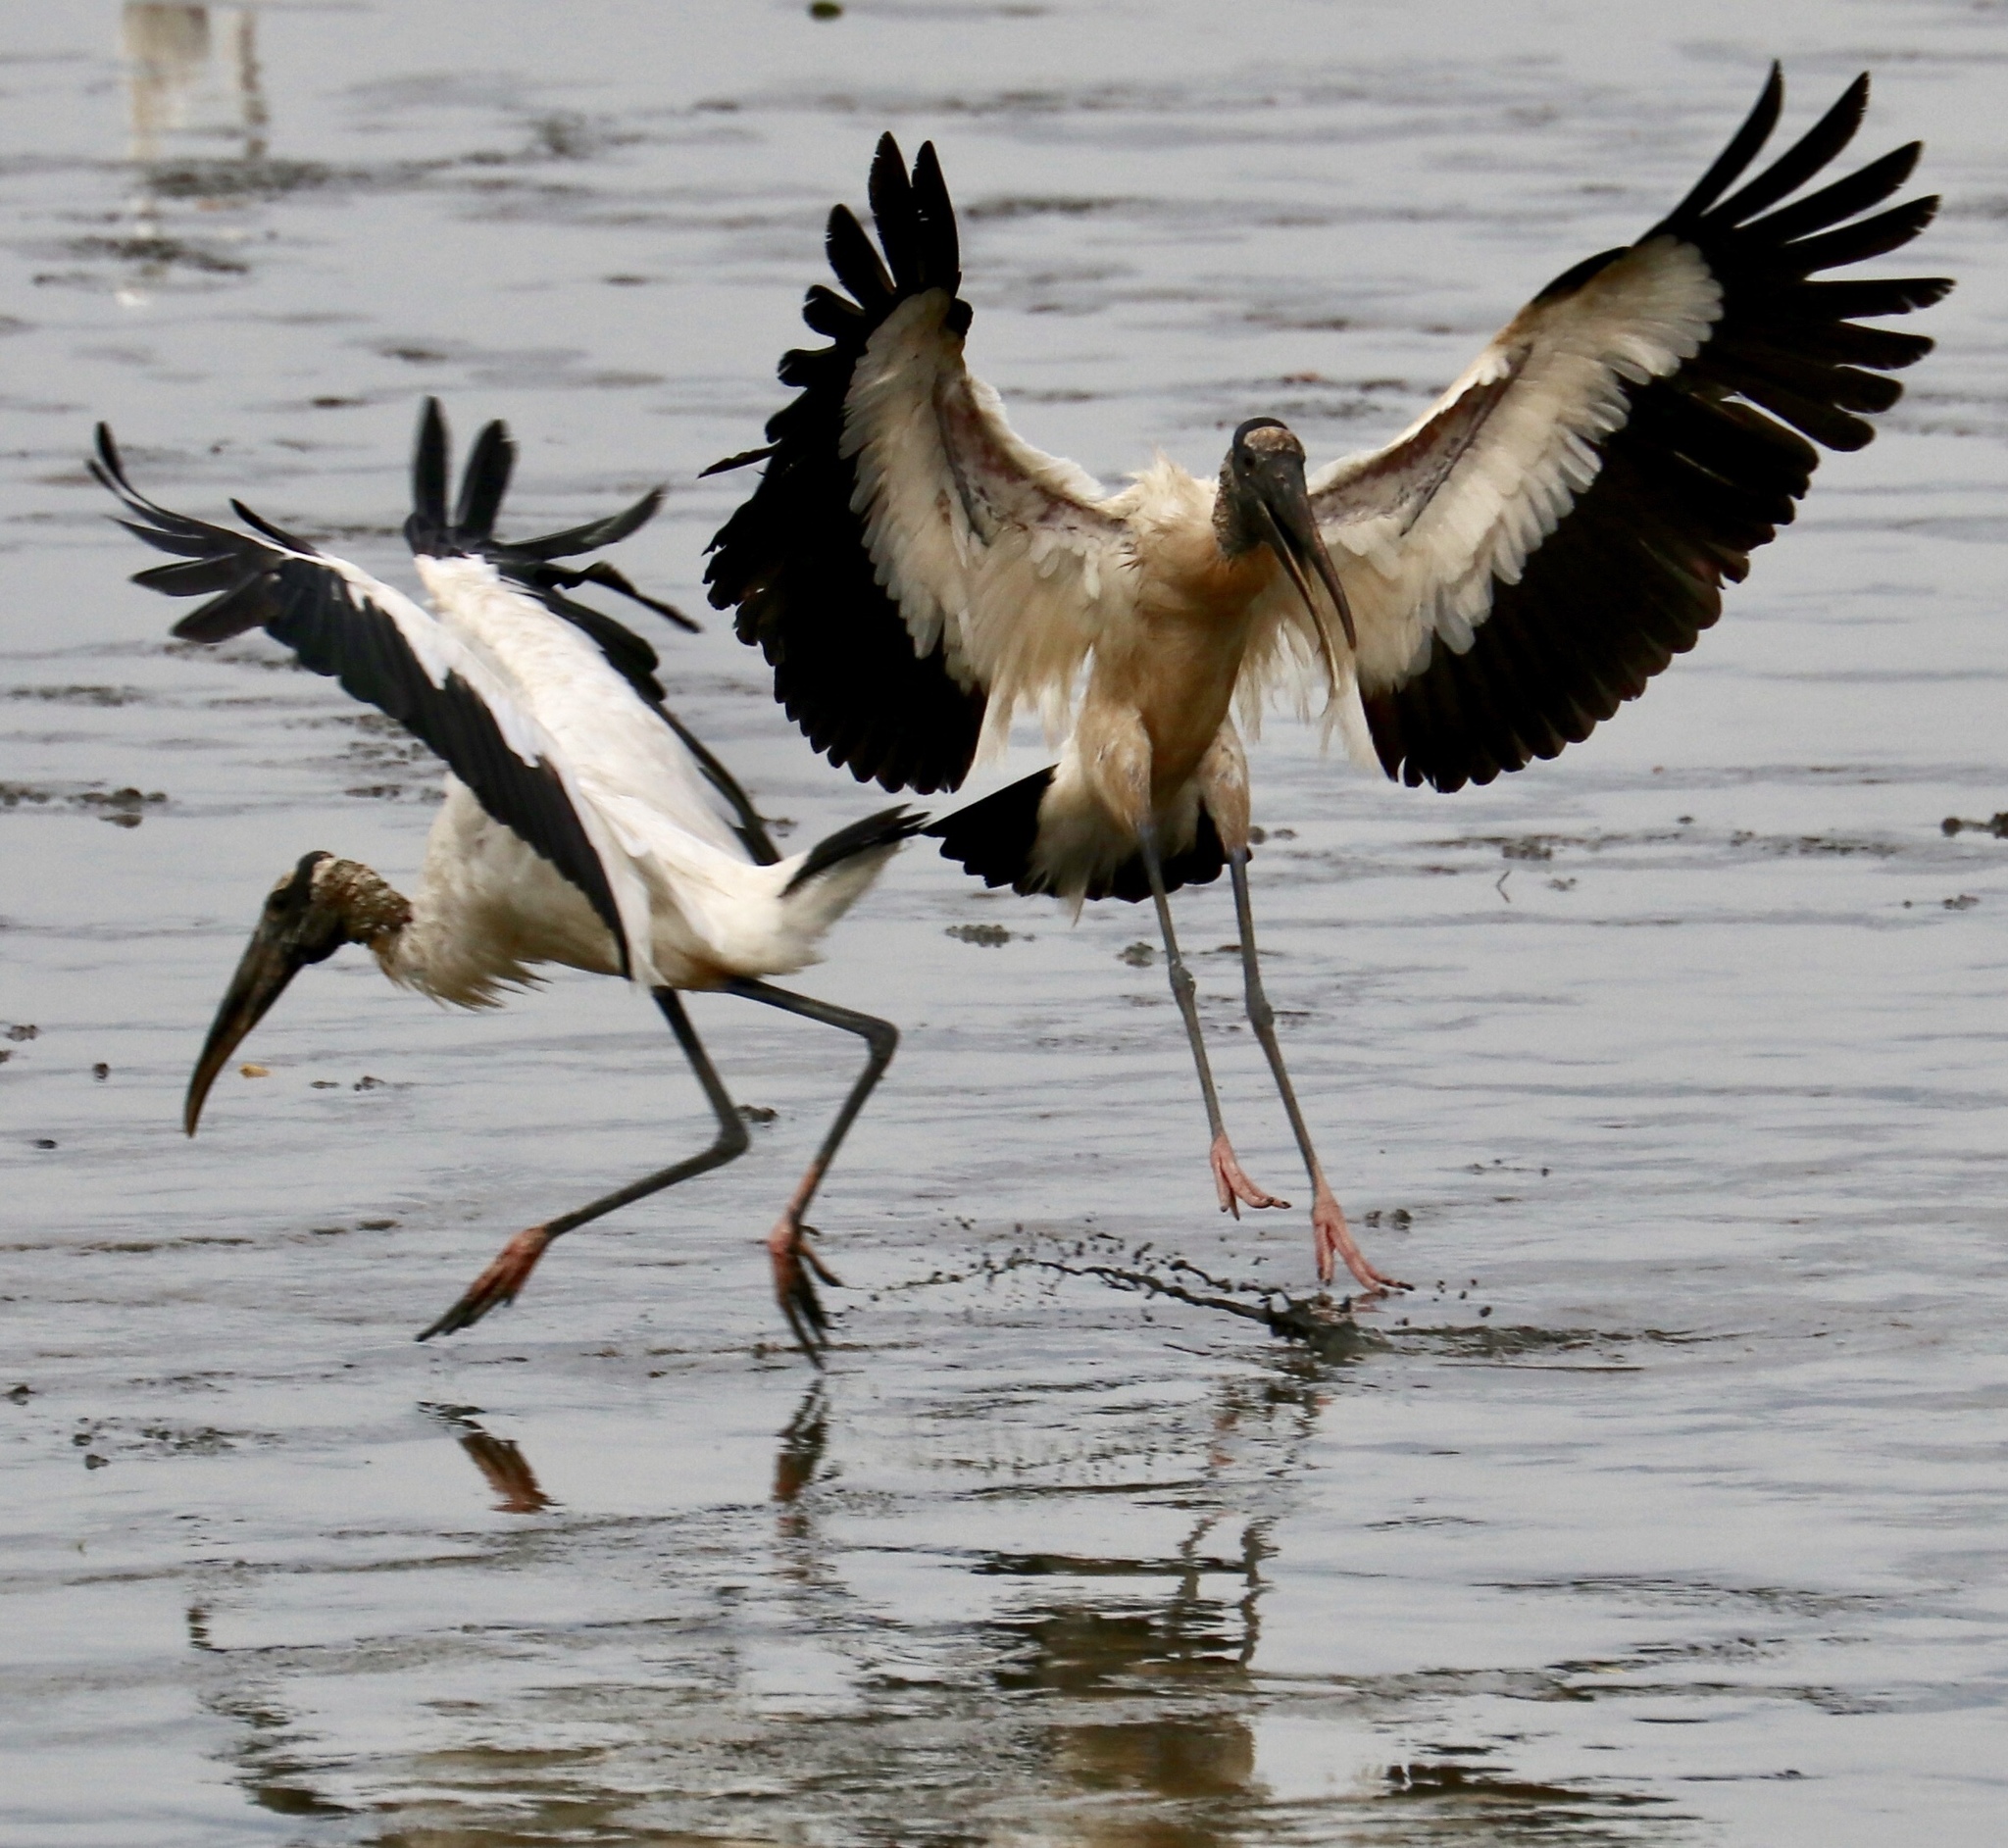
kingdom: Animalia
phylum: Chordata
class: Aves
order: Ciconiiformes
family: Ciconiidae
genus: Mycteria
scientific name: Mycteria americana
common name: Wood stork
